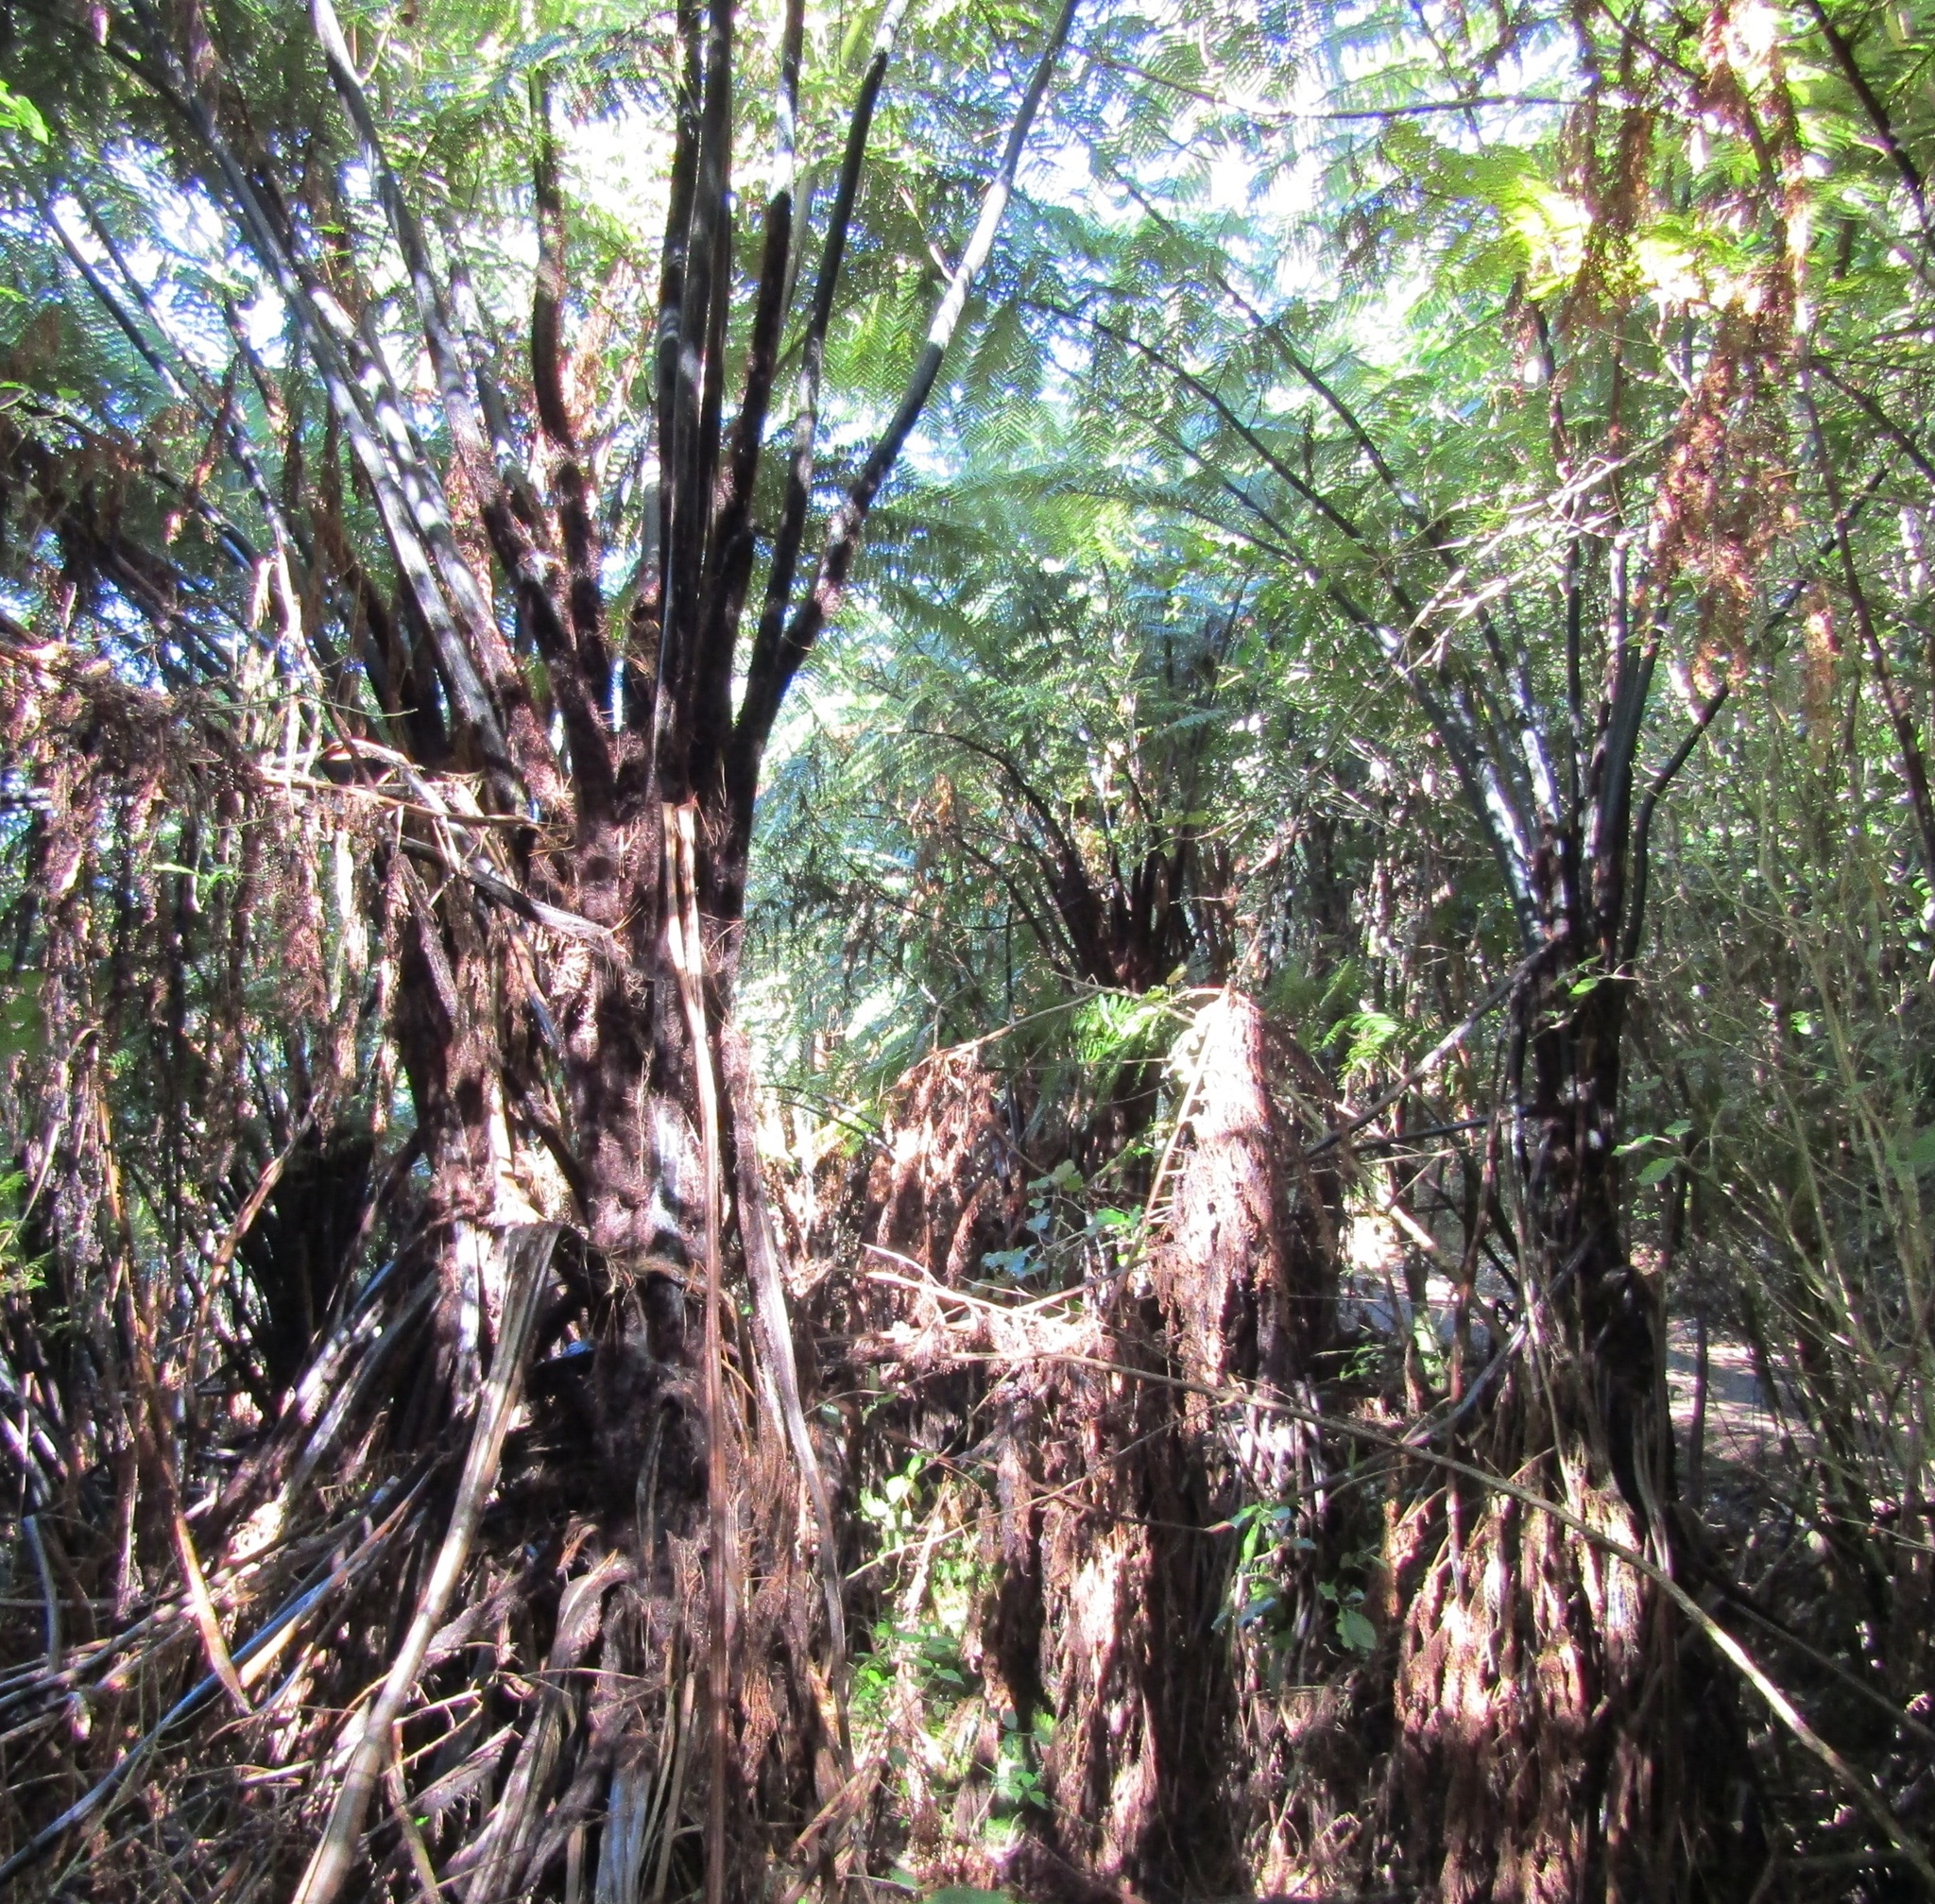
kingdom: Plantae
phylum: Tracheophyta
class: Polypodiopsida
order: Cyatheales
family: Cyatheaceae
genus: Sphaeropteris
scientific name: Sphaeropteris medullaris
